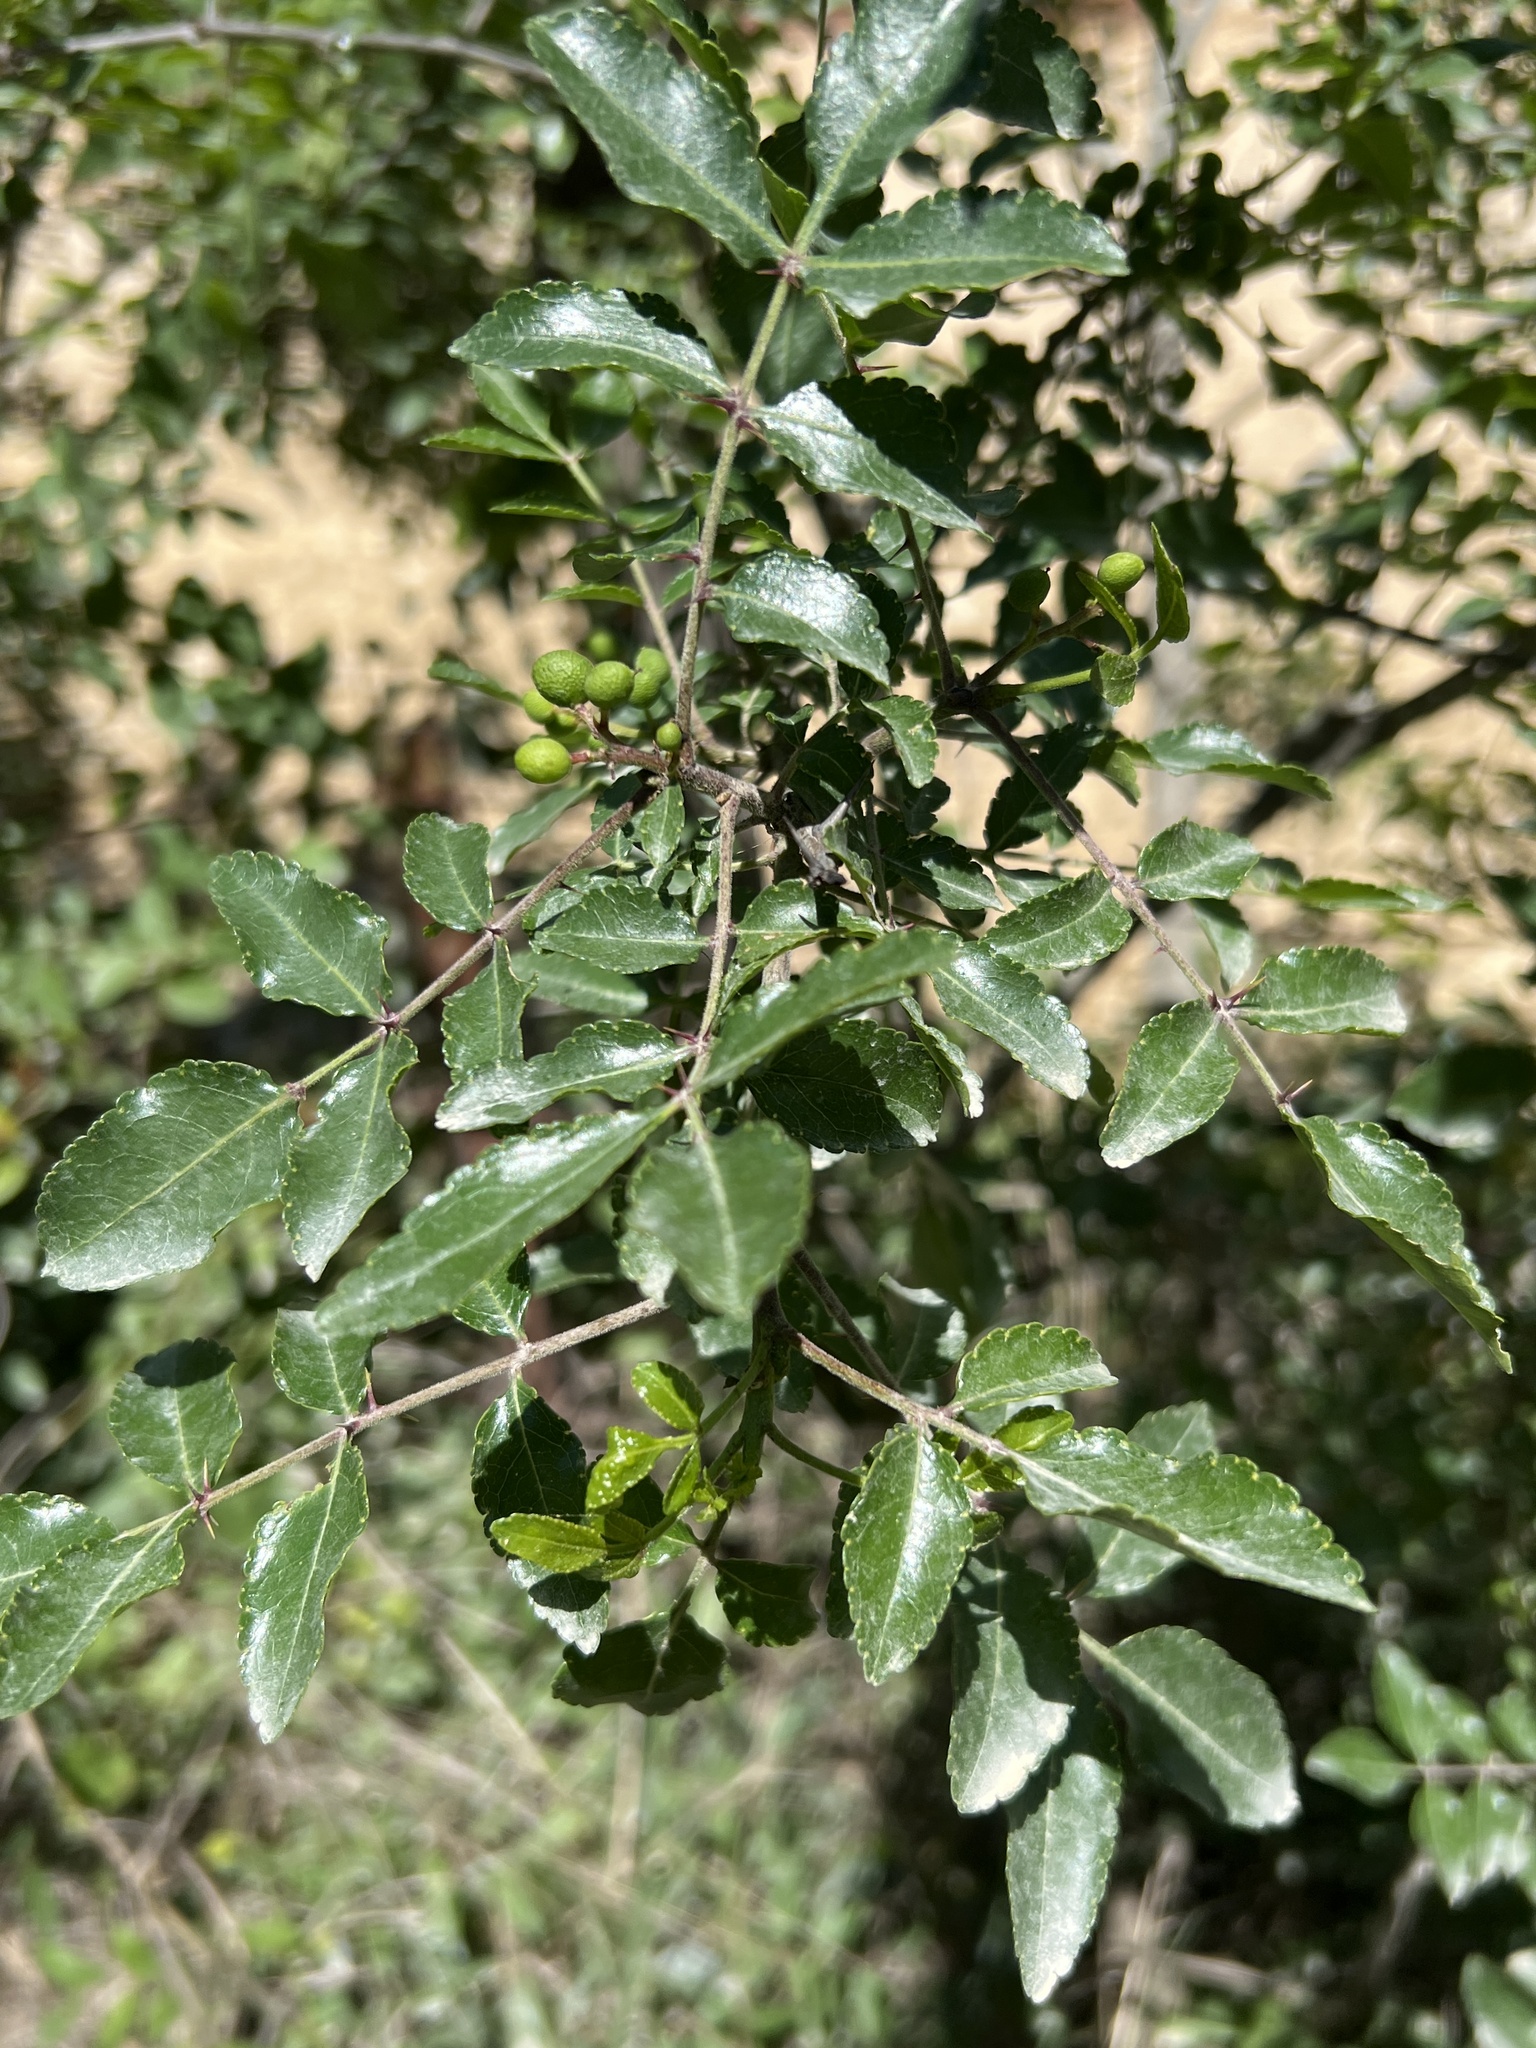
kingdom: Plantae
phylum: Tracheophyta
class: Magnoliopsida
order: Sapindales
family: Rutaceae
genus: Zanthoxylum
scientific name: Zanthoxylum clava-herculis
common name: Hercules'-club
